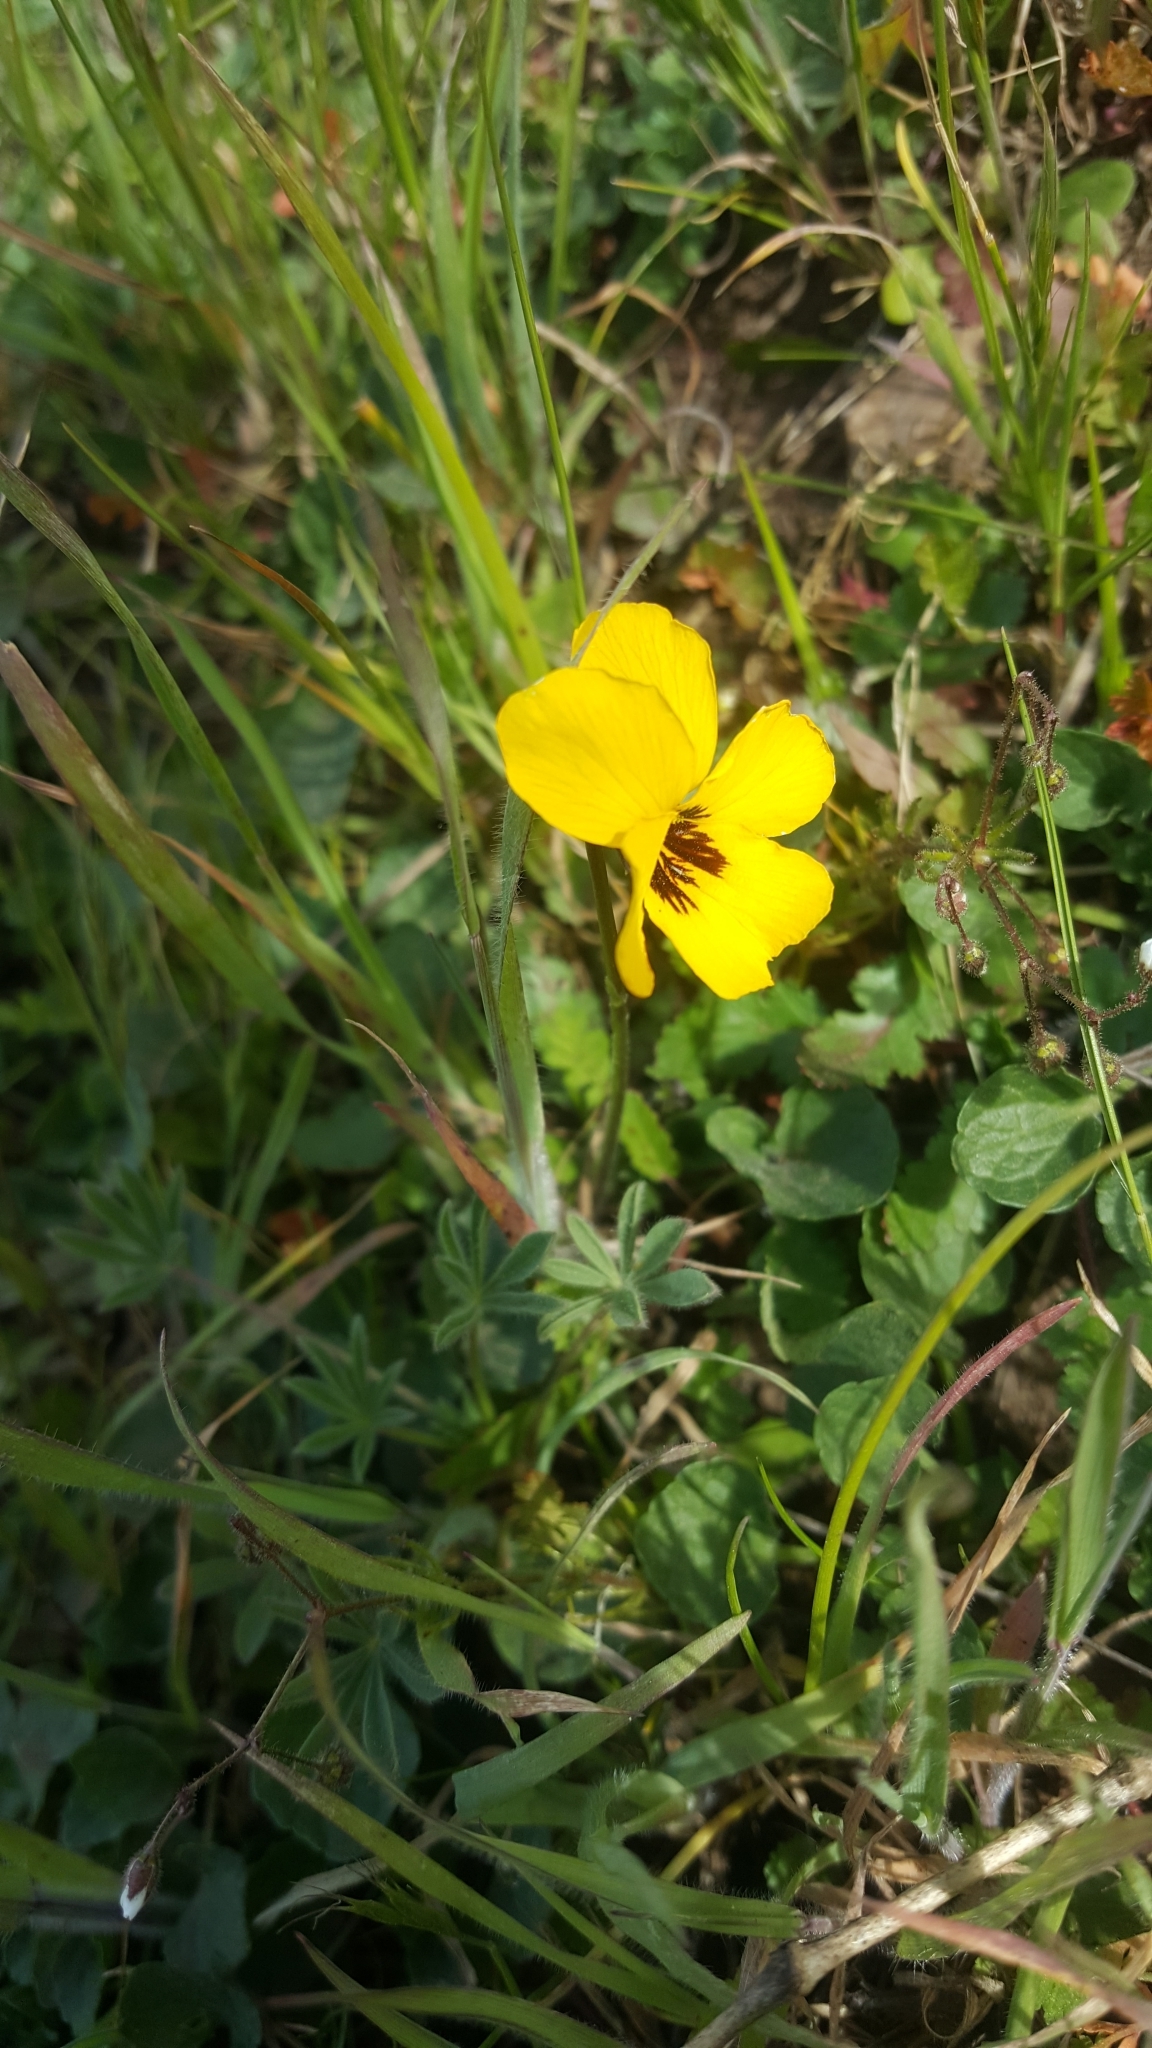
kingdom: Plantae
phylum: Tracheophyta
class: Magnoliopsida
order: Malpighiales
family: Violaceae
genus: Viola
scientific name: Viola pedunculata
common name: California golden violet
